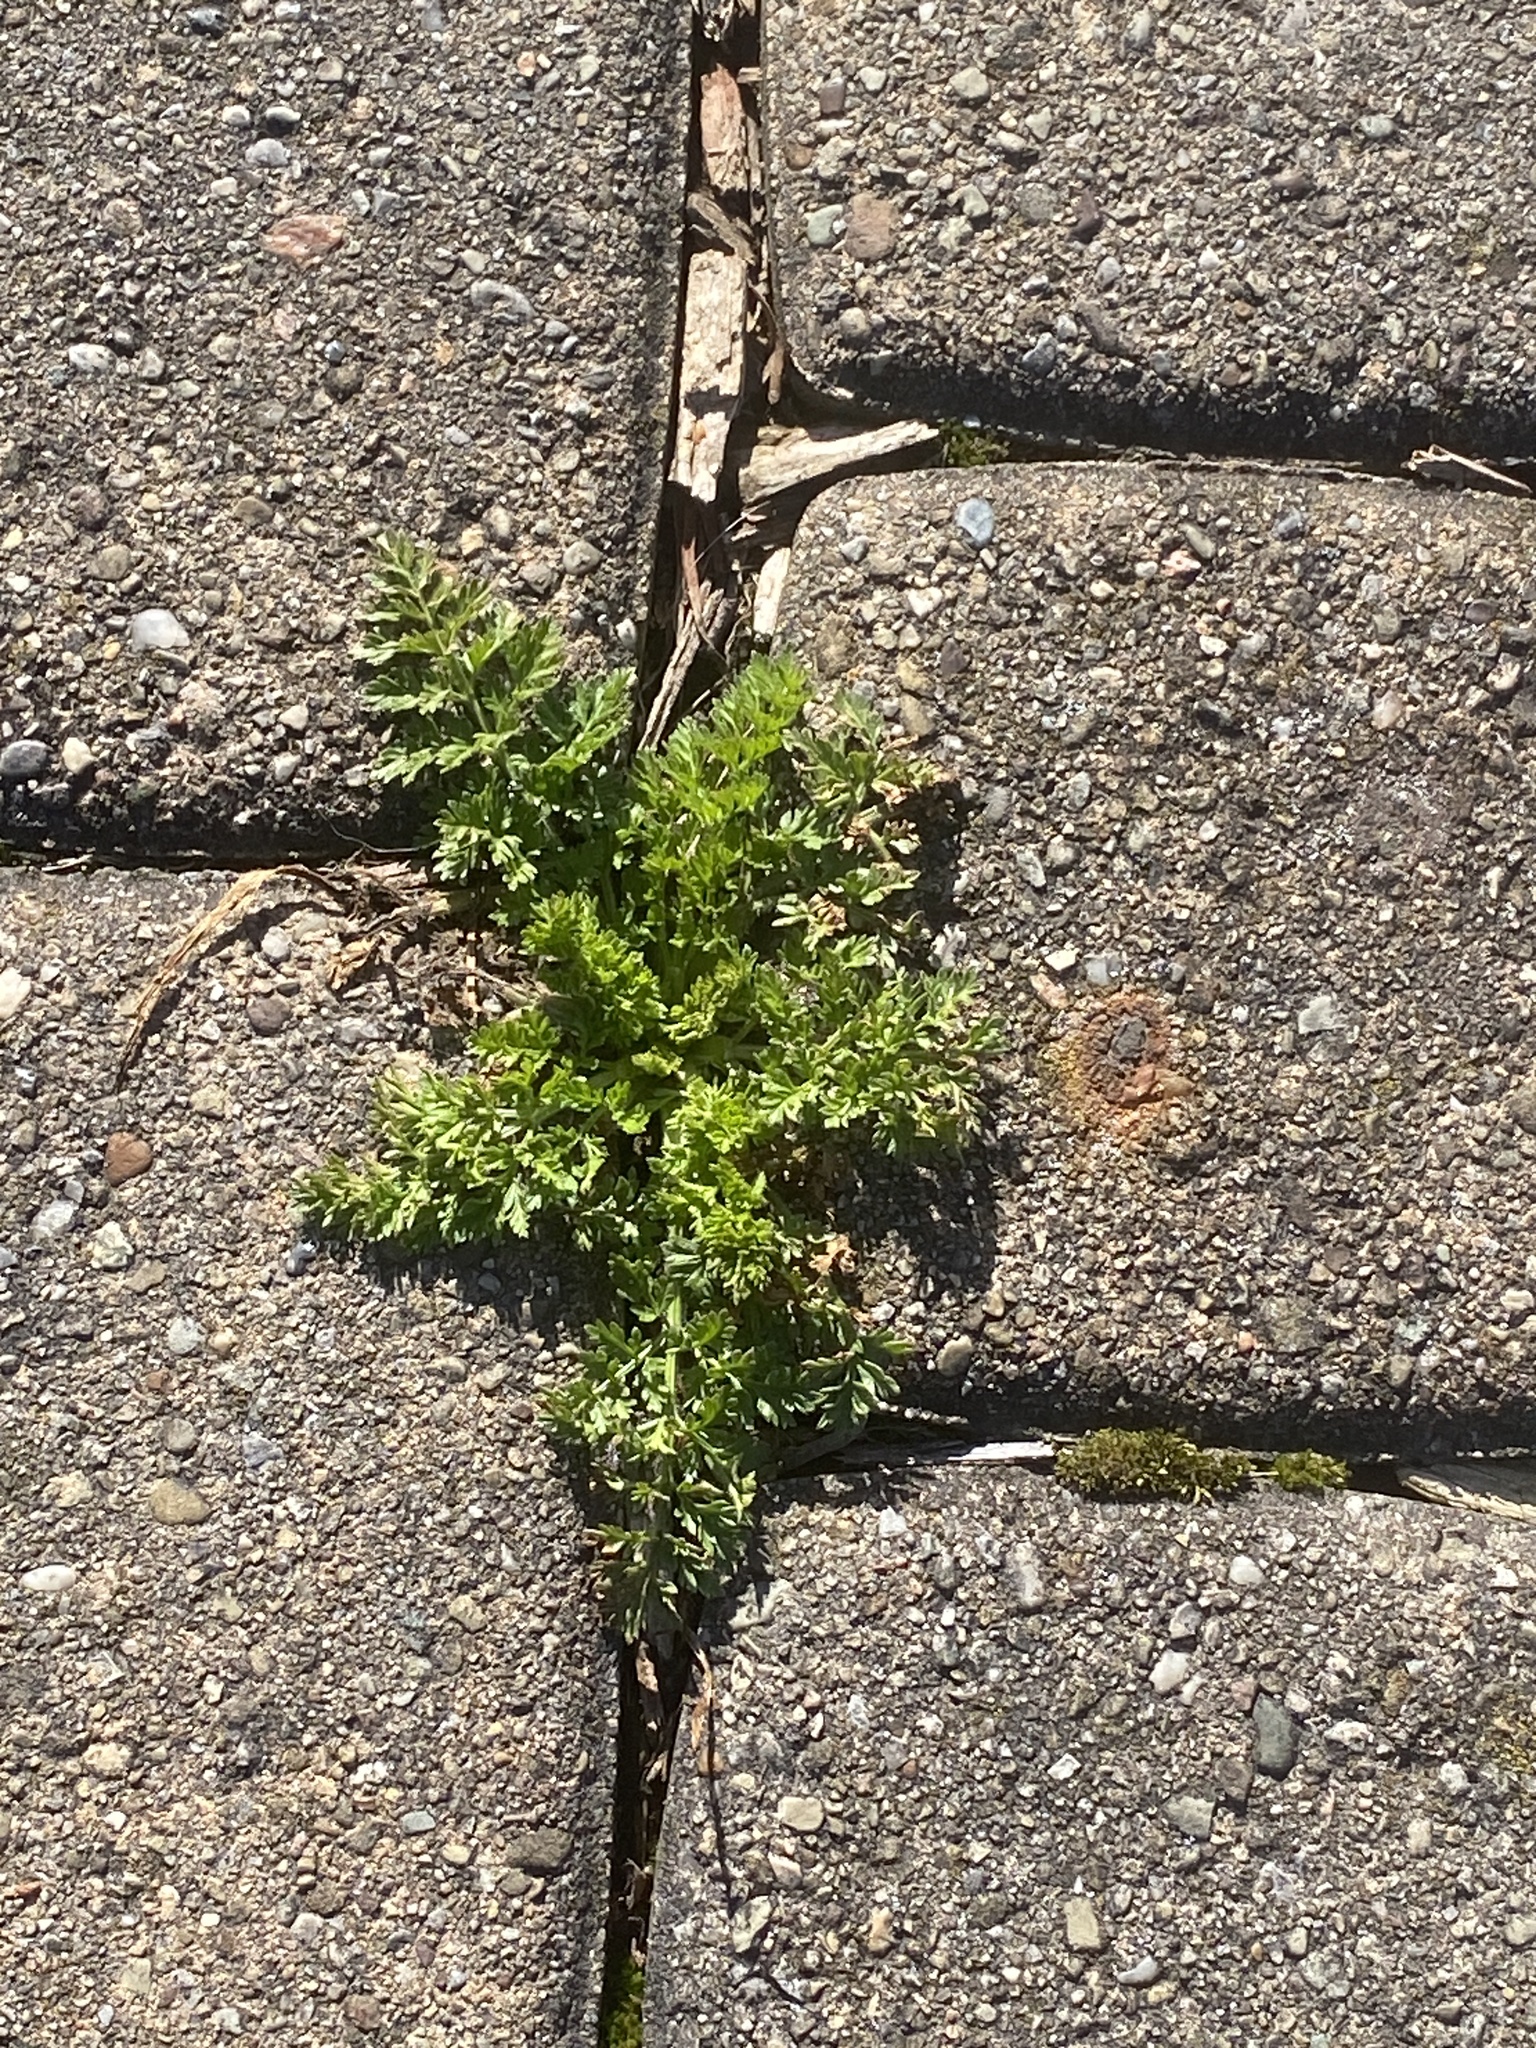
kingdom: Plantae
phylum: Tracheophyta
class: Magnoliopsida
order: Apiales
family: Apiaceae
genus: Daucus
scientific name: Daucus carota
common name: Wild carrot
